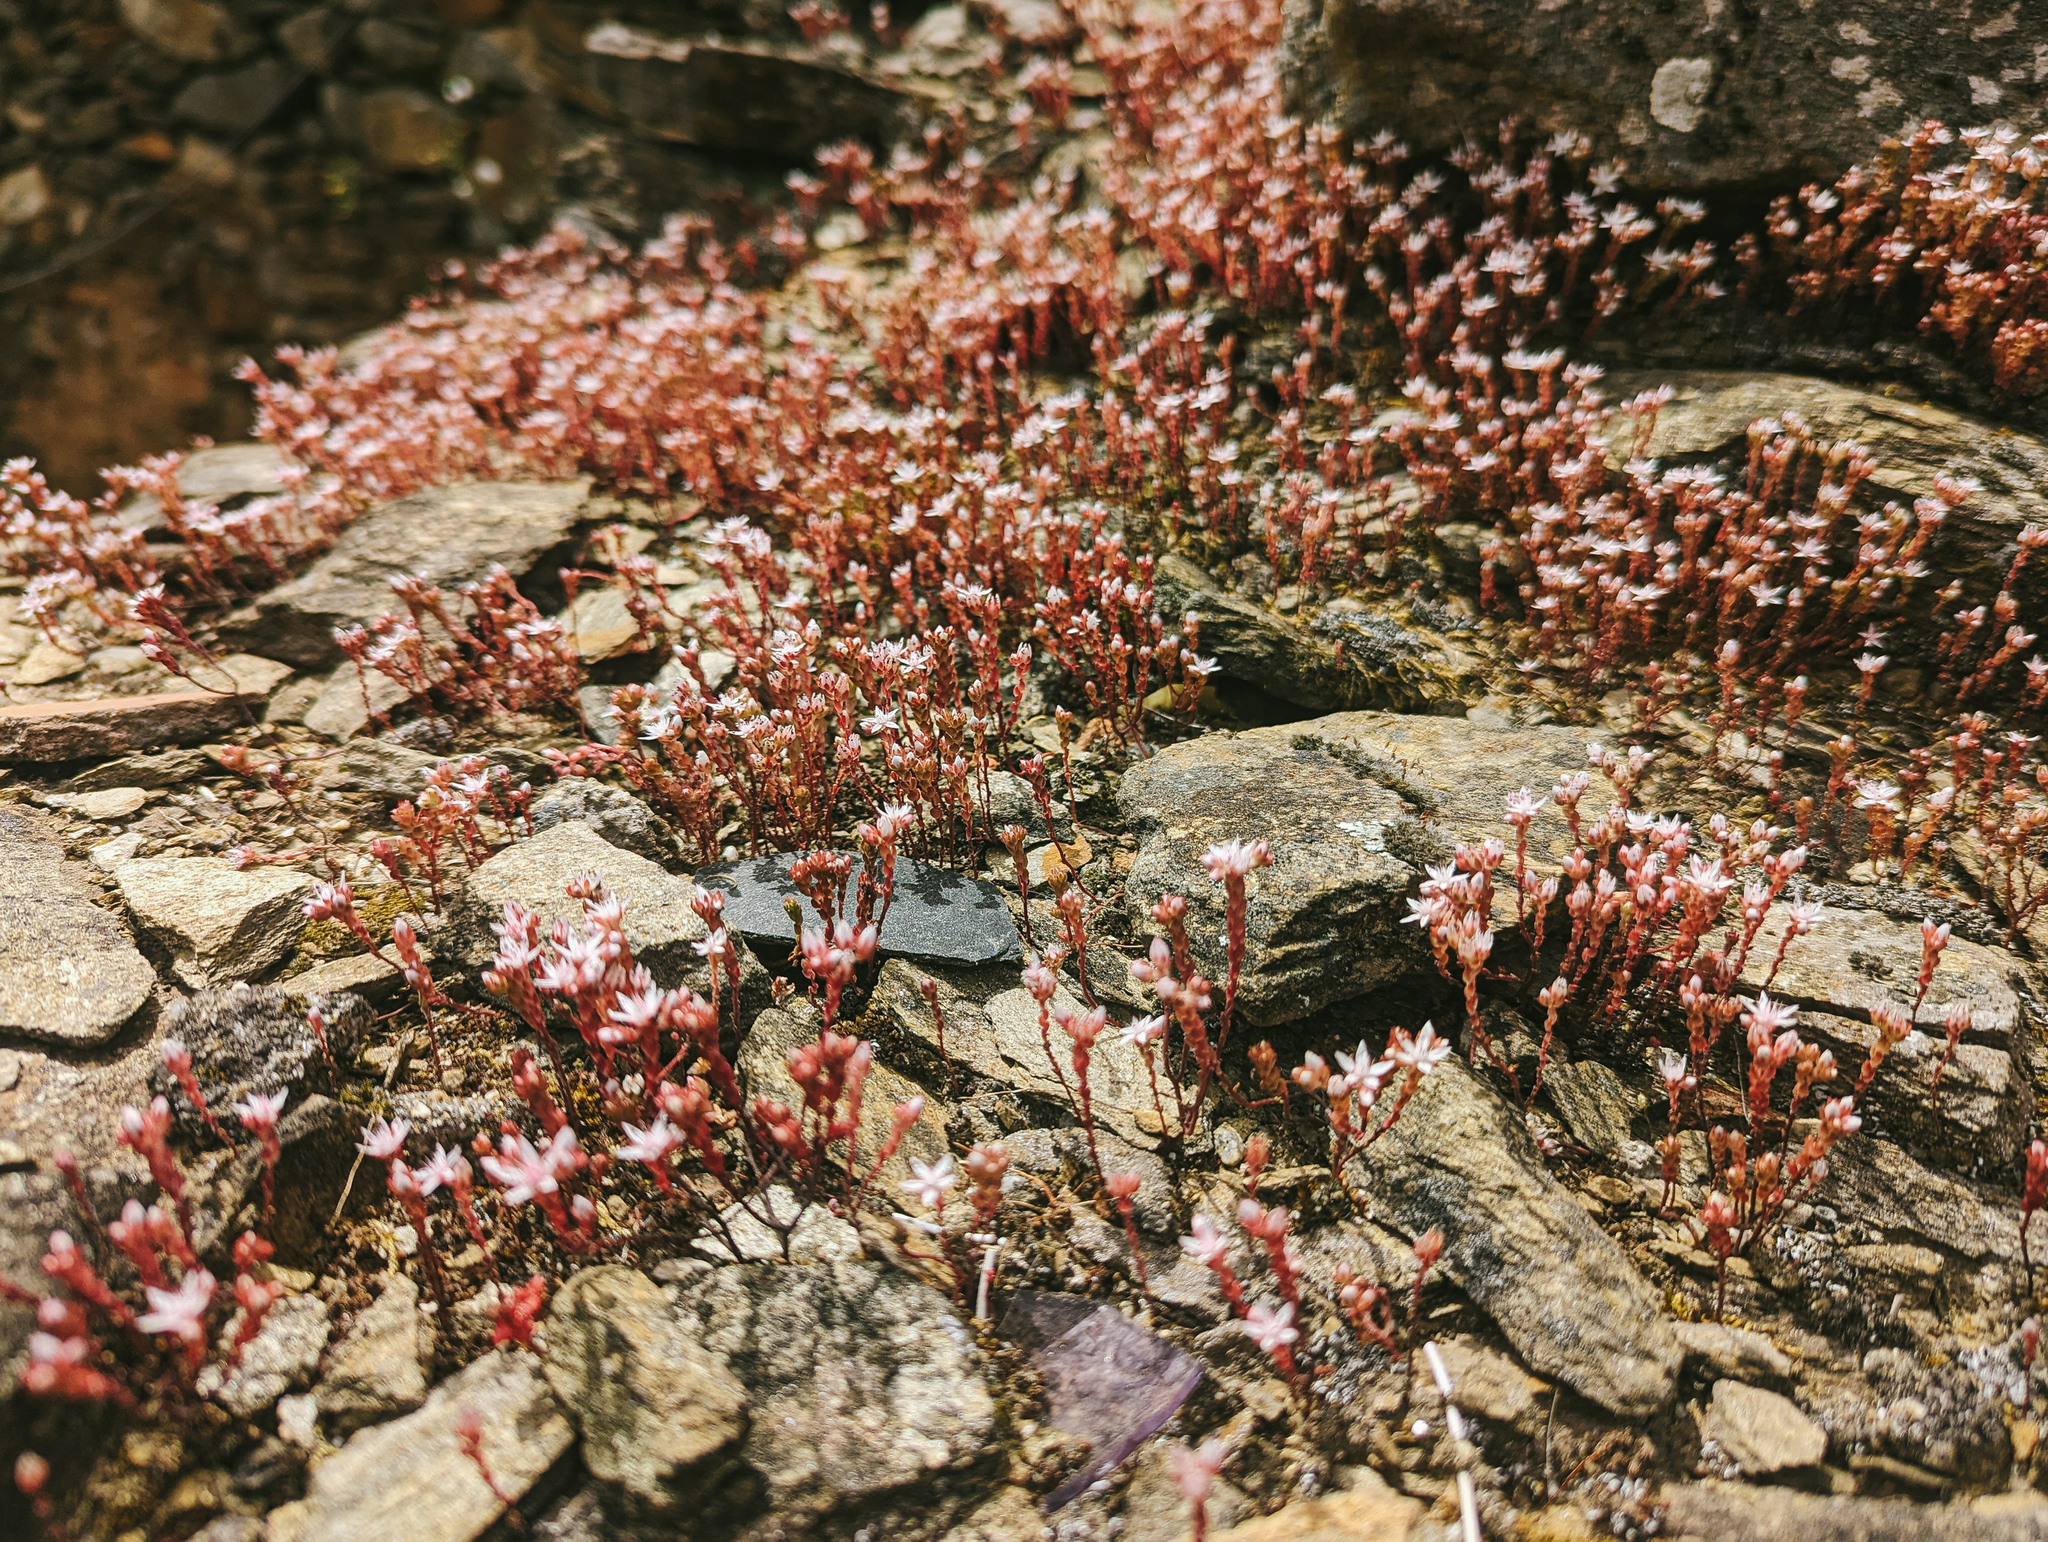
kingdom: Plantae
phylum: Tracheophyta
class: Magnoliopsida
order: Saxifragales
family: Crassulaceae
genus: Sedum
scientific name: Sedum arenarium
